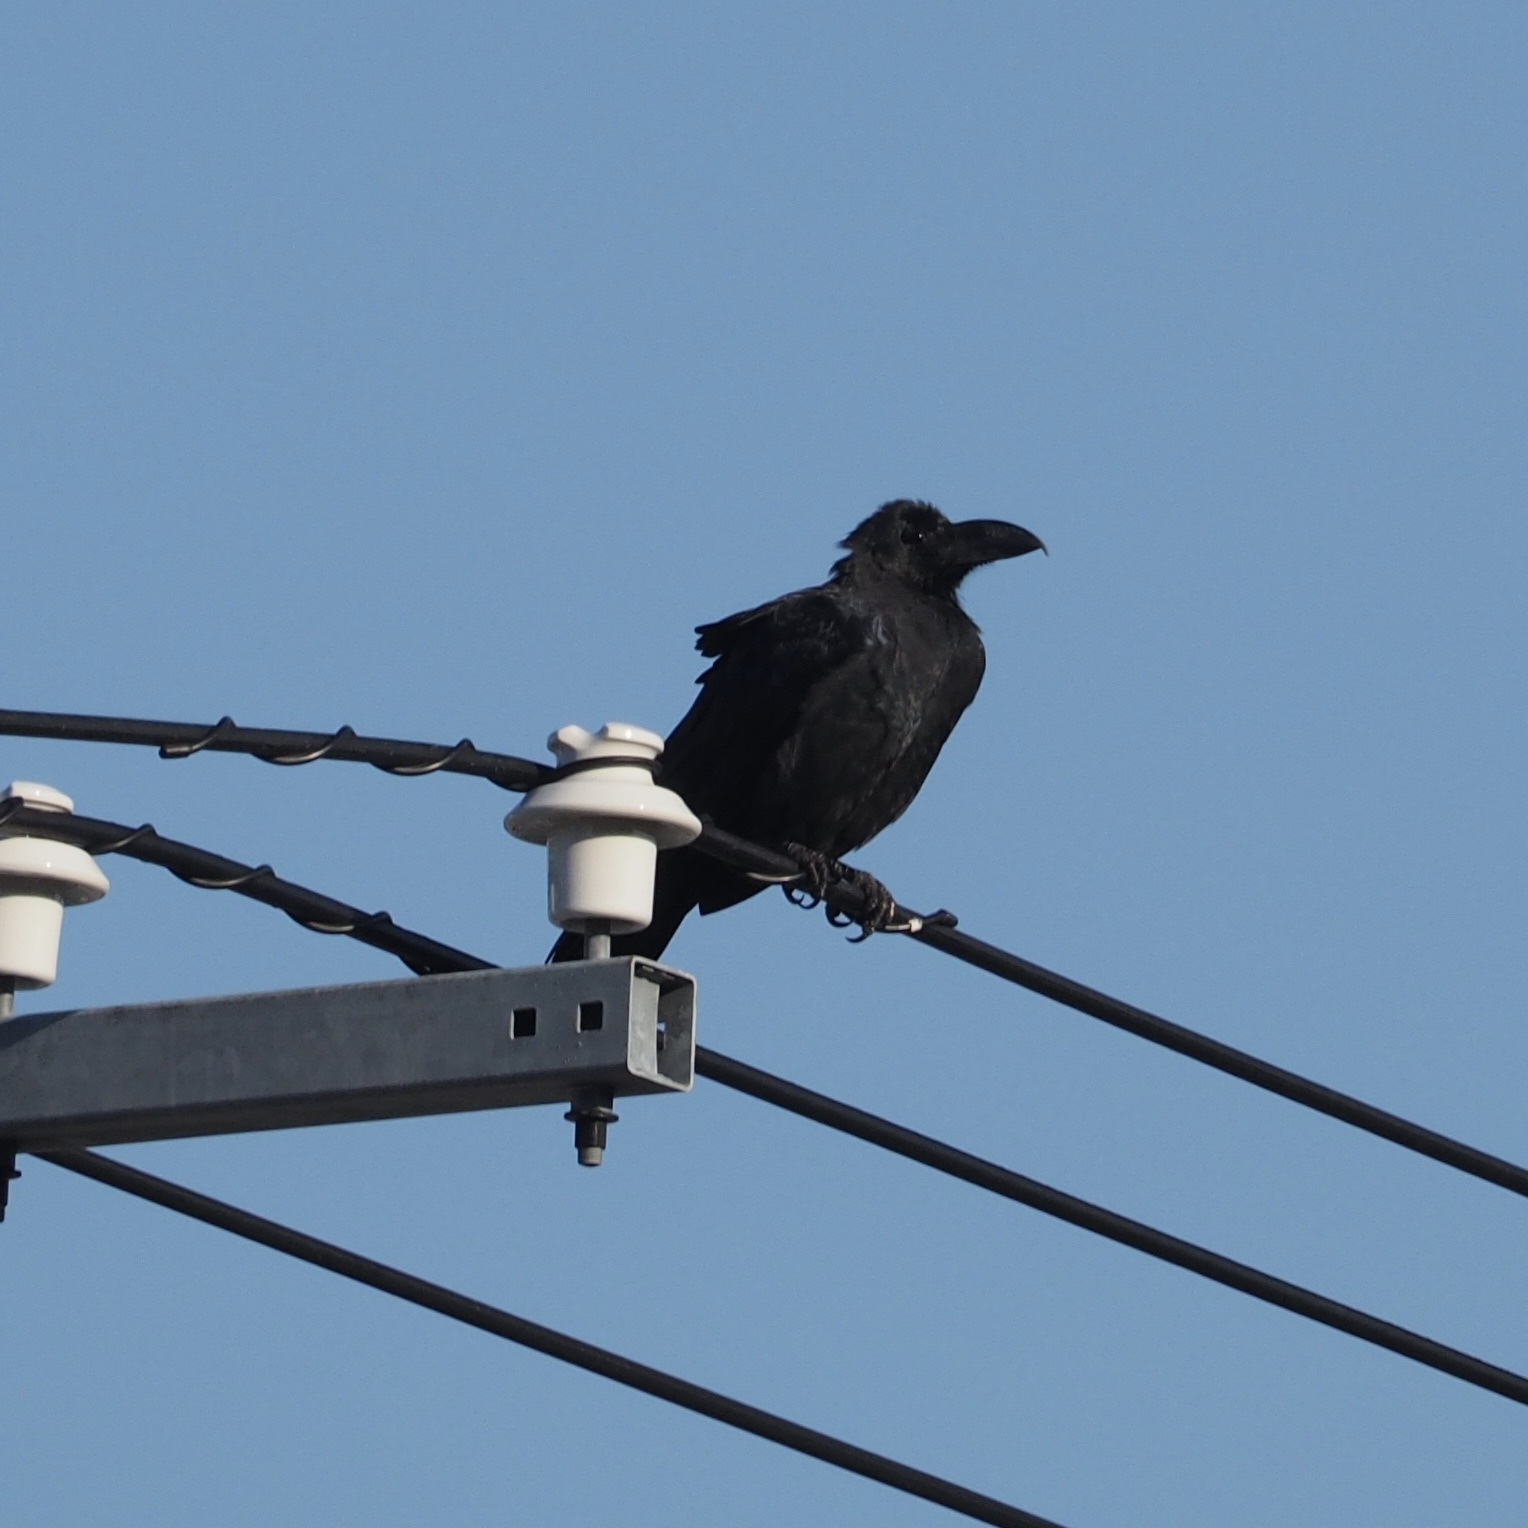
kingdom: Animalia
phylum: Chordata
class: Aves
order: Passeriformes
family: Corvidae
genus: Corvus
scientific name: Corvus macrorhynchos
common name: Large-billed crow
